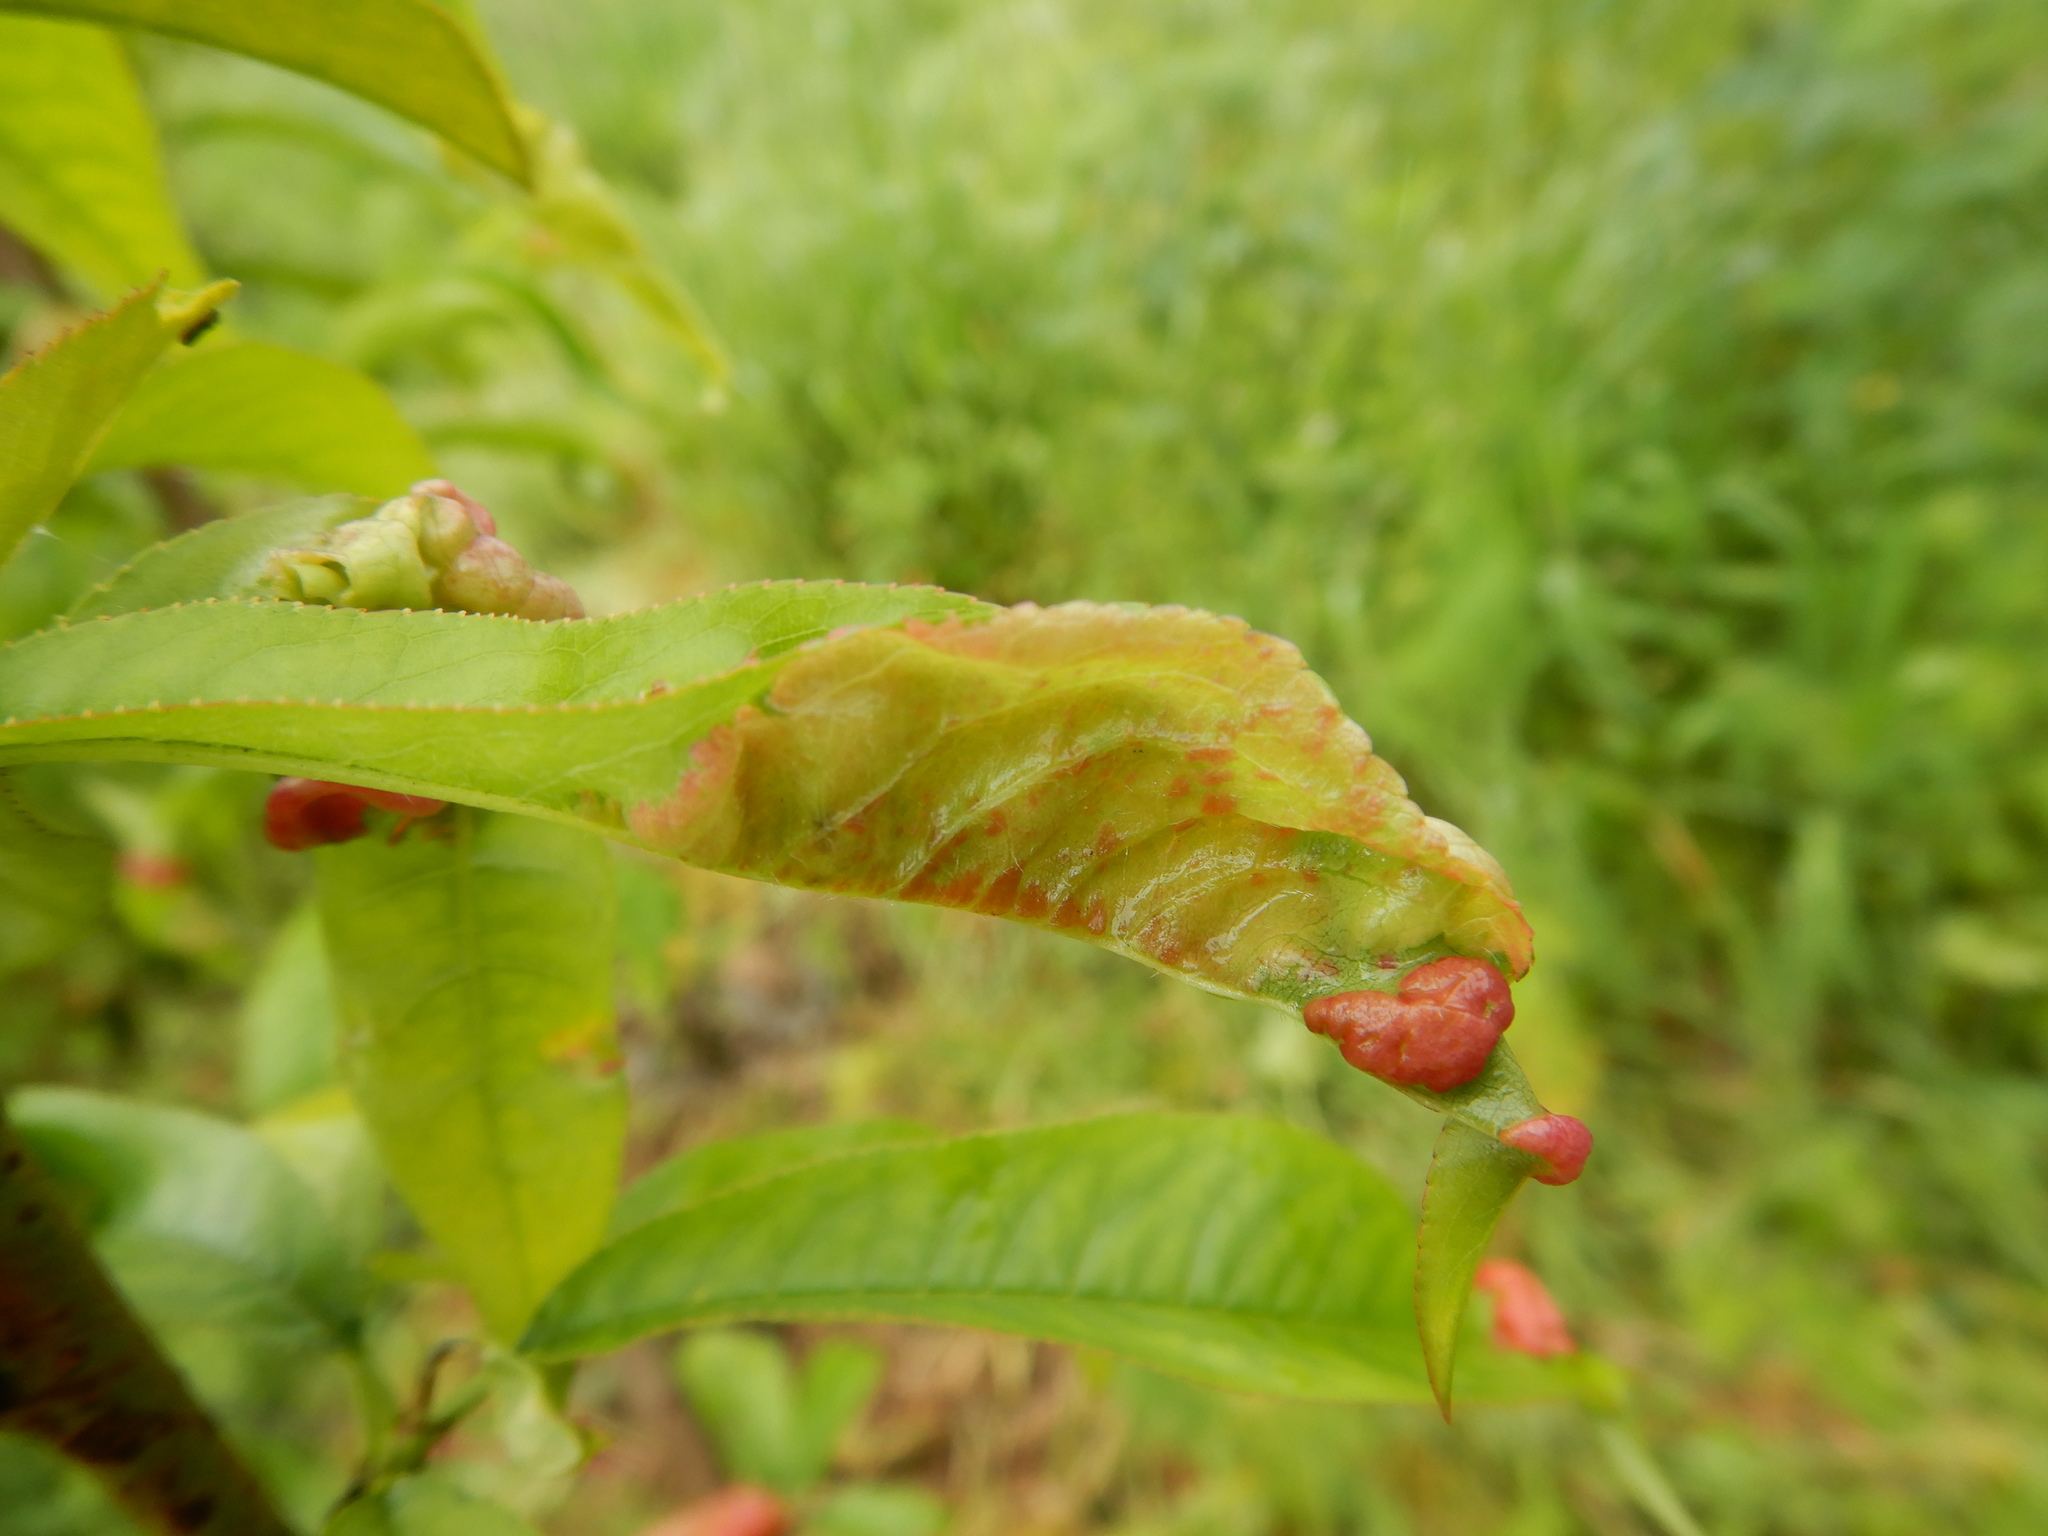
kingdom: Fungi
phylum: Ascomycota
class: Taphrinomycetes
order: Taphrinales
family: Taphrinaceae
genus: Taphrina
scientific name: Taphrina deformans
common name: Peach leaf curl
